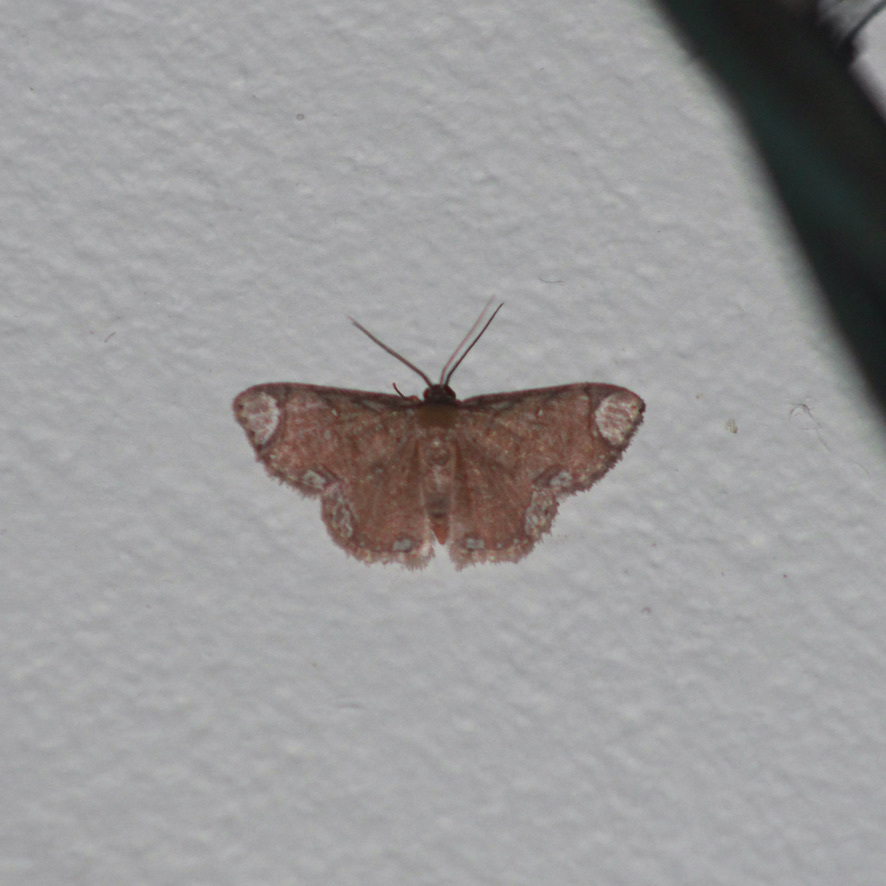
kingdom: Animalia
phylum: Arthropoda
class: Insecta
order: Lepidoptera
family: Geometridae
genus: Lipotaxia
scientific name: Lipotaxia rubicunda
